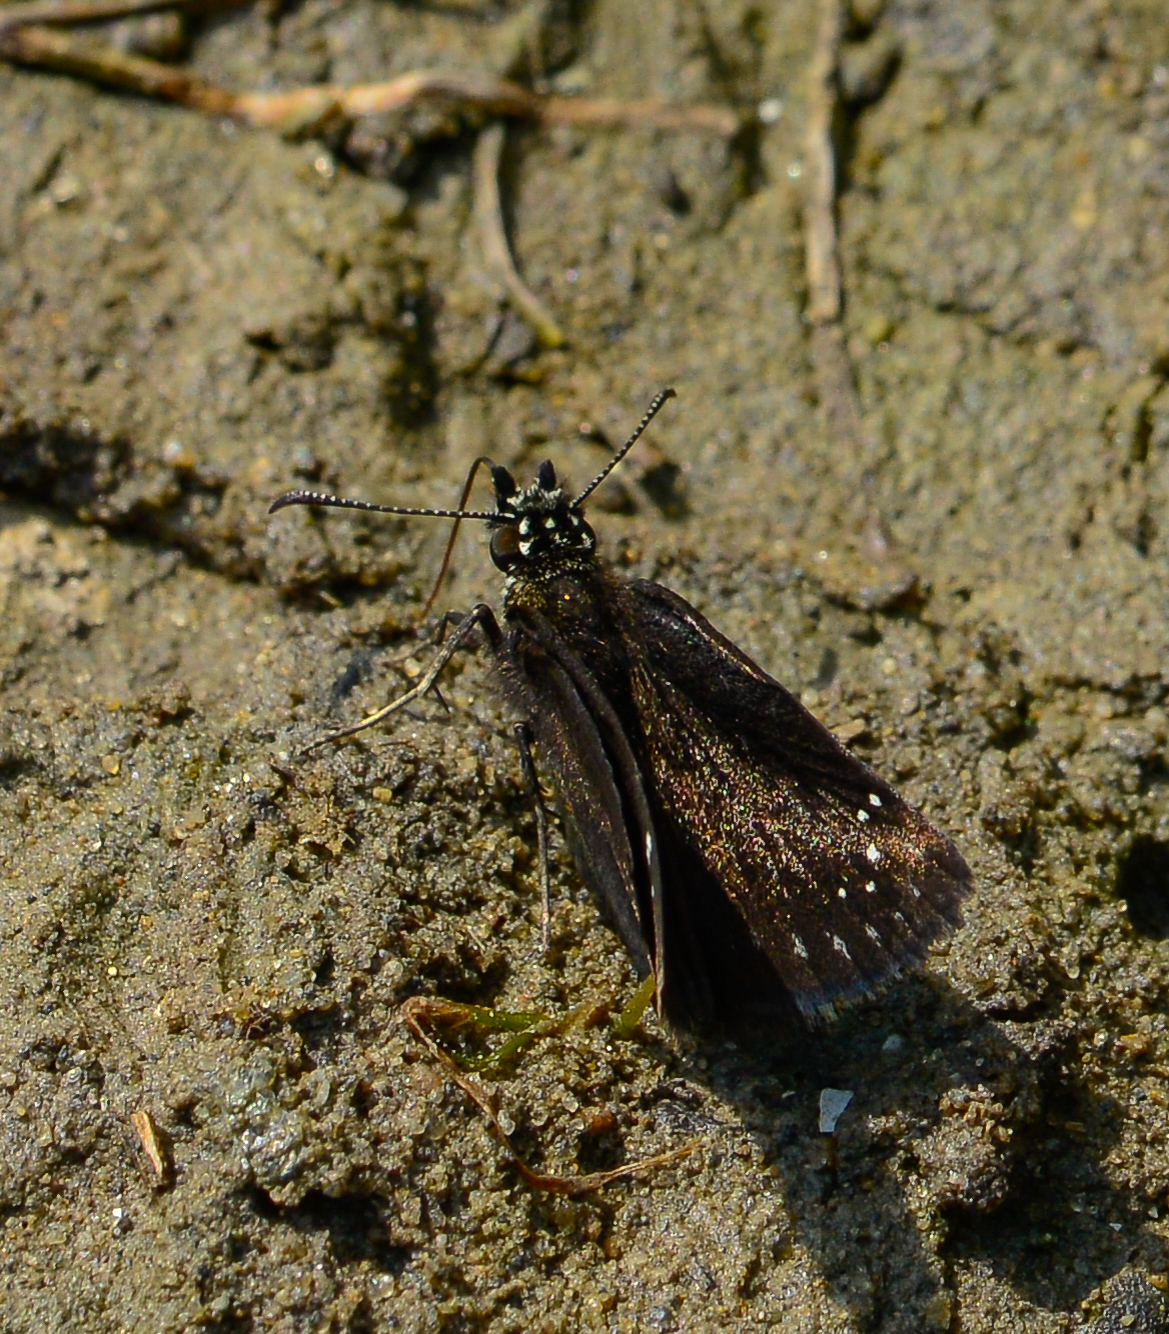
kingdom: Animalia
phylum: Arthropoda
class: Insecta
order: Lepidoptera
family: Hesperiidae
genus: Pholisora
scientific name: Pholisora catullus
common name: Common sootywing
